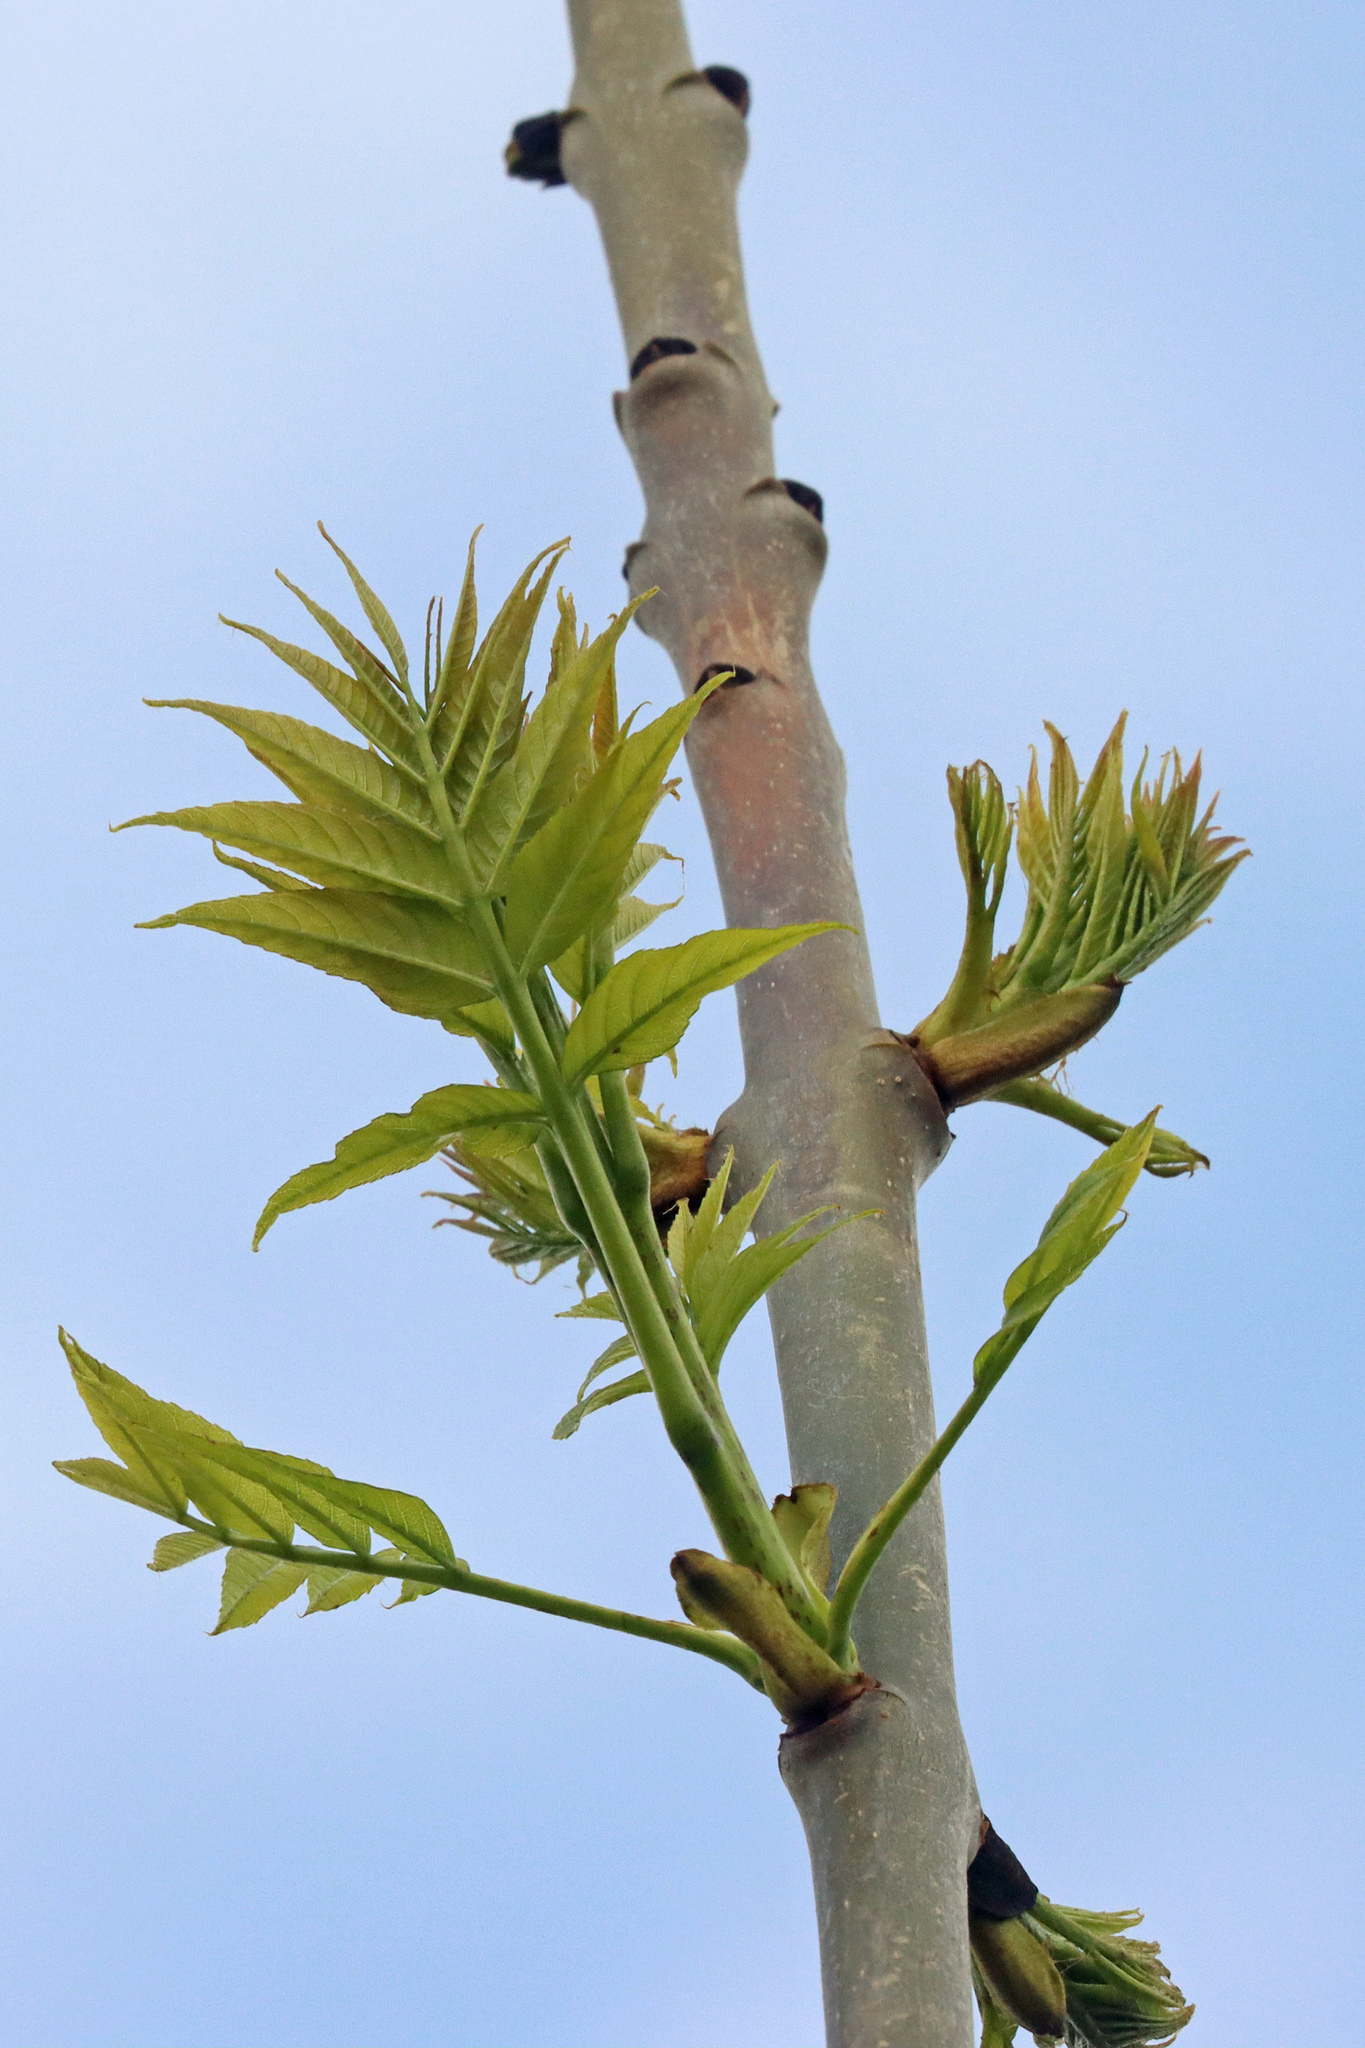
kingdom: Plantae
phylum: Tracheophyta
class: Magnoliopsida
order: Lamiales
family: Oleaceae
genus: Fraxinus
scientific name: Fraxinus excelsior
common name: European ash
